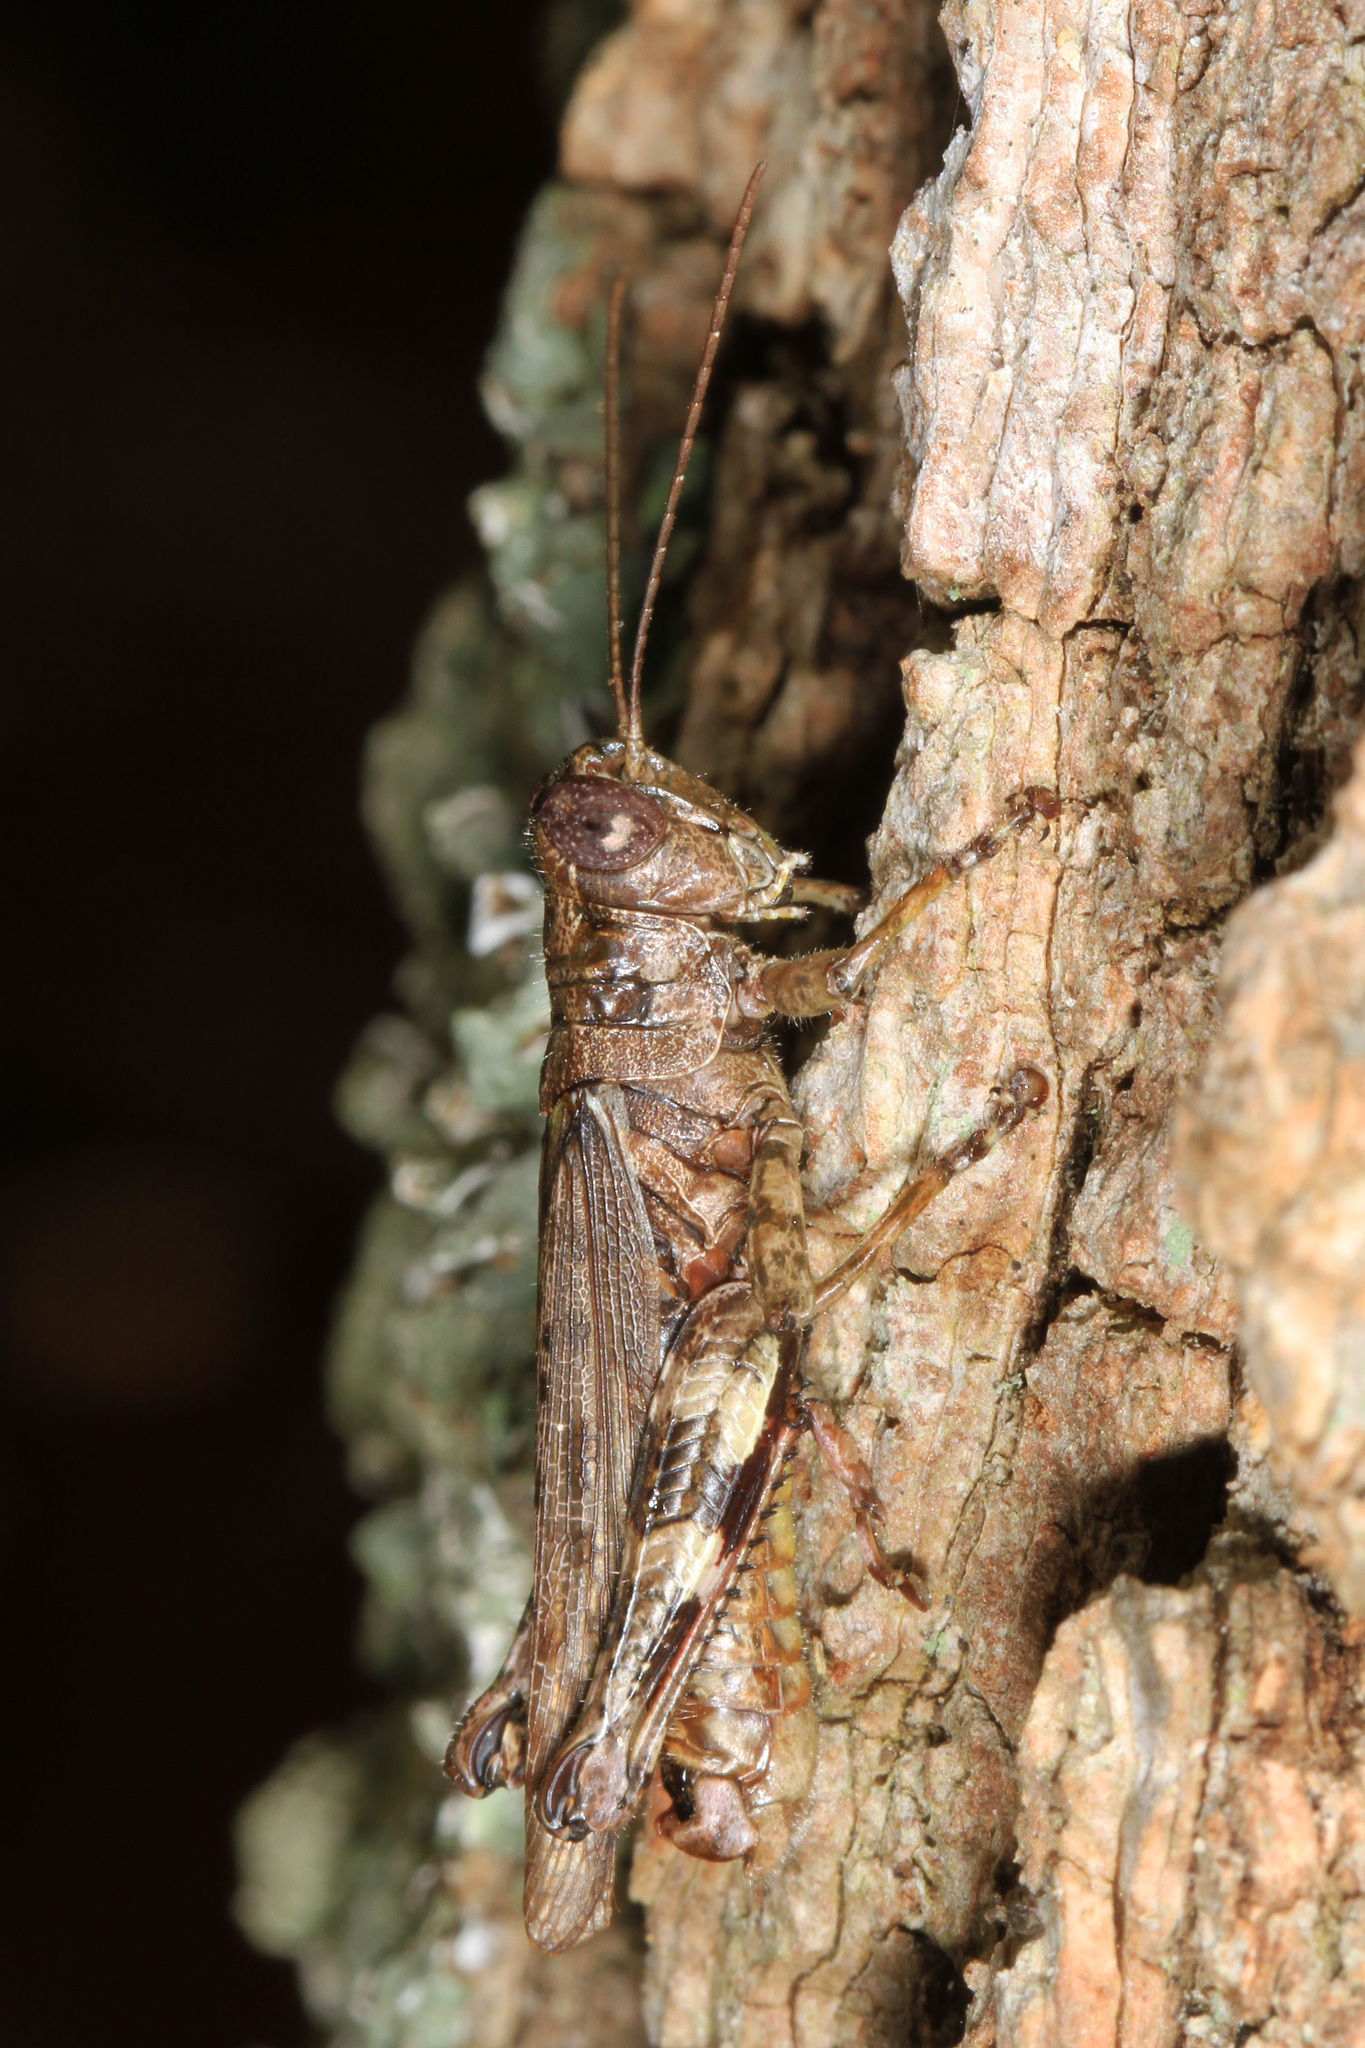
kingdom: Animalia
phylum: Arthropoda
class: Insecta
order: Orthoptera
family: Acrididae
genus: Melanoplus
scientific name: Melanoplus punctulatus
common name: Pine-tree spur-throat grasshopper
